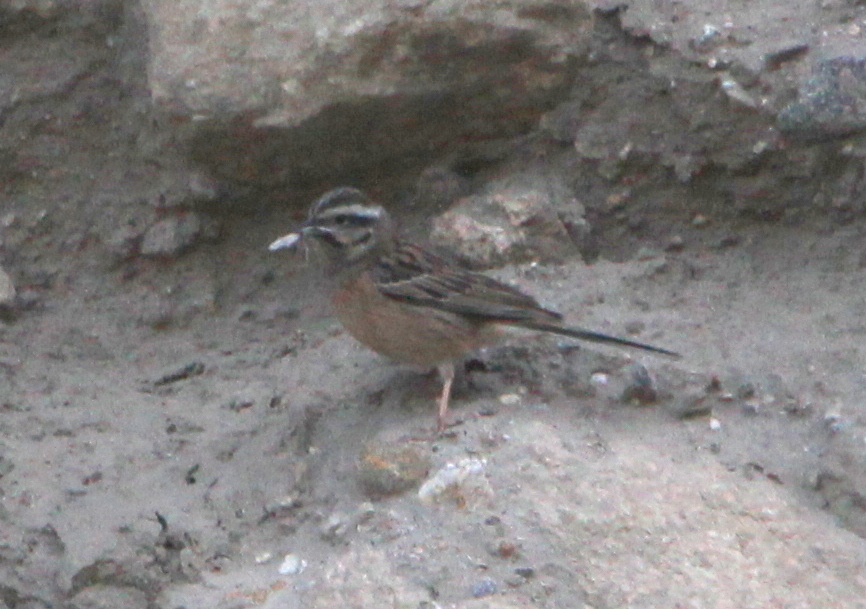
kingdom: Animalia
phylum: Chordata
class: Aves
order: Passeriformes
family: Emberizidae
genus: Emberiza
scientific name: Emberiza cia
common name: Rock bunting
